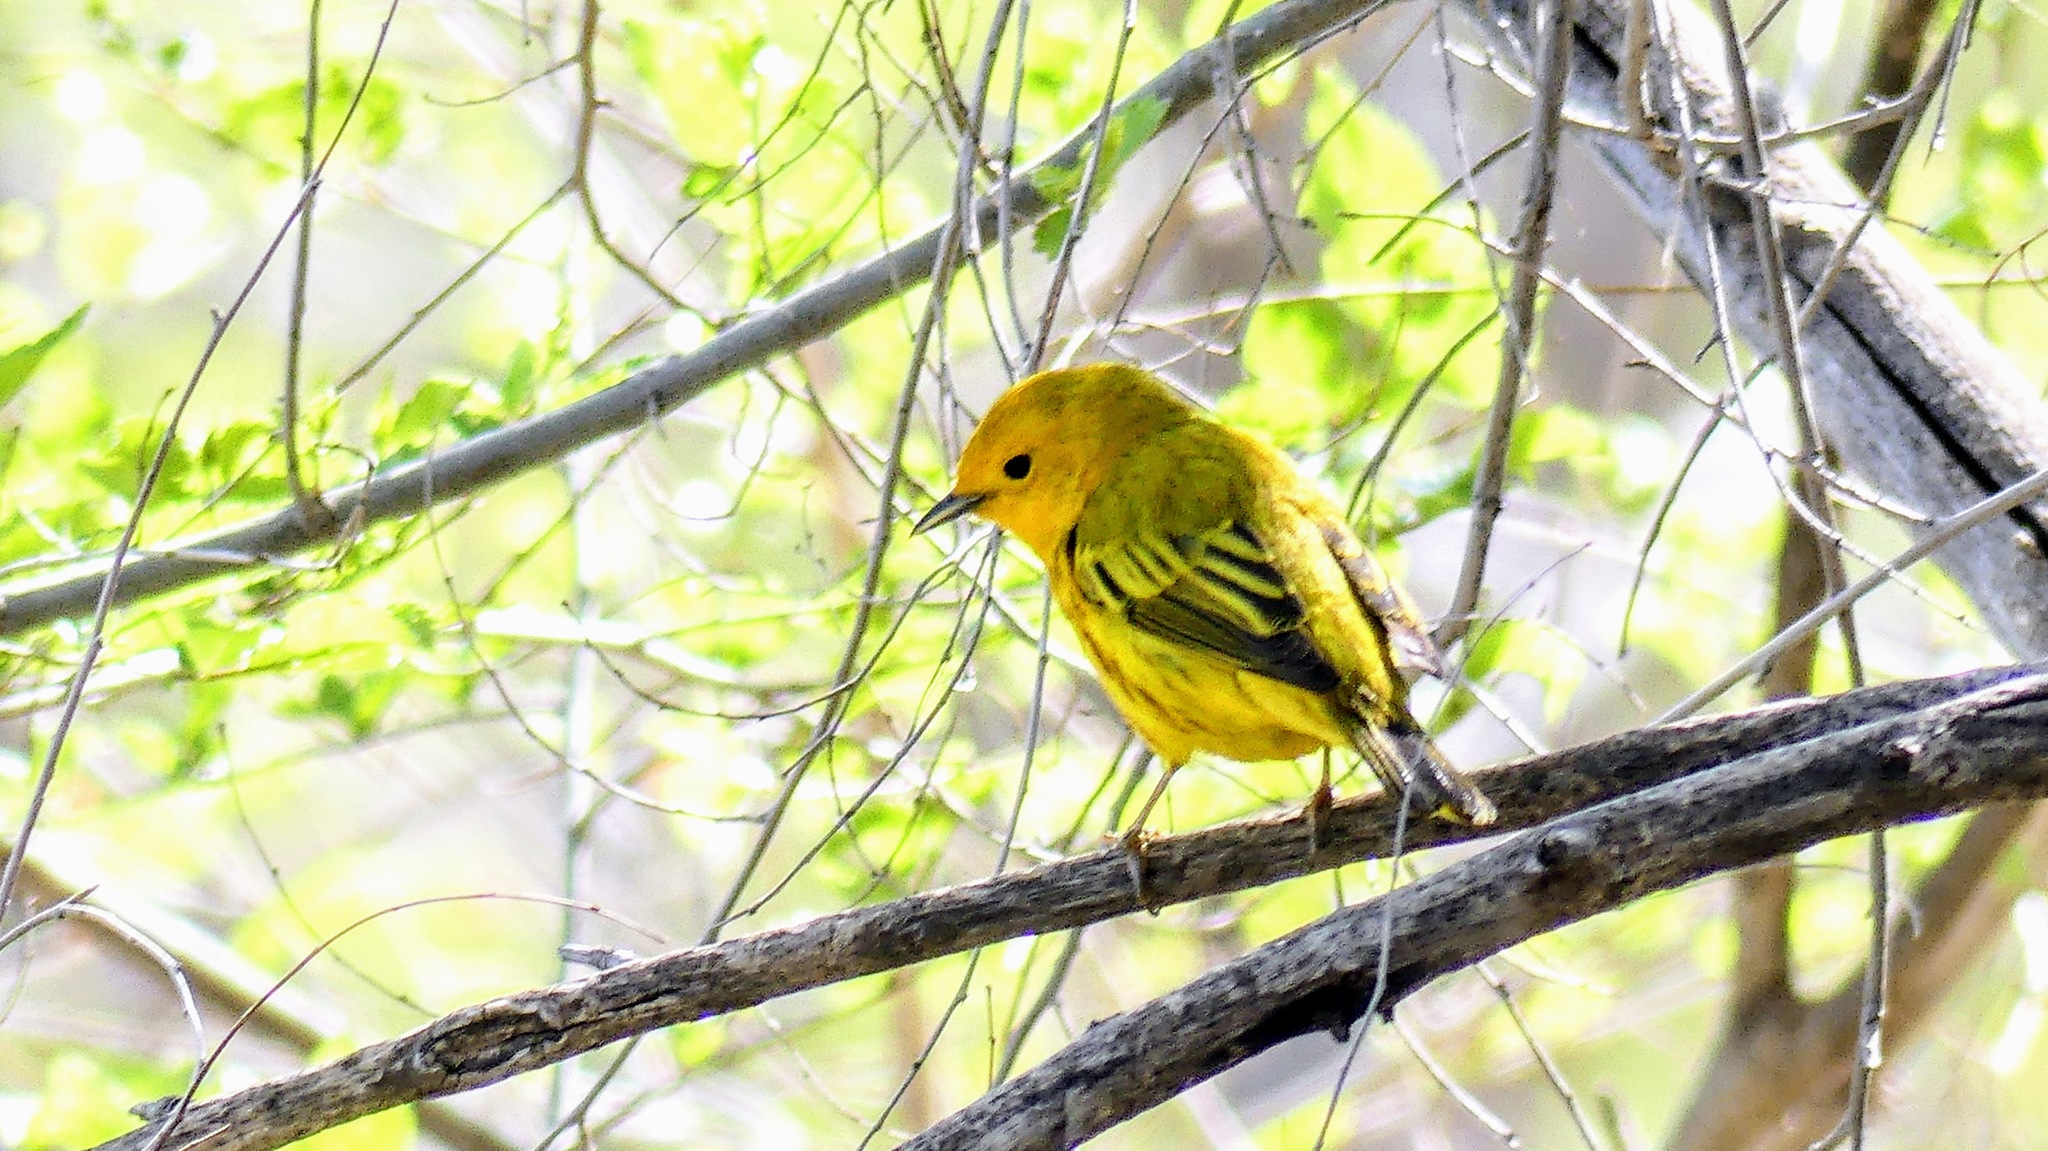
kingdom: Animalia
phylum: Chordata
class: Aves
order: Passeriformes
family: Parulidae
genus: Setophaga
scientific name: Setophaga petechia
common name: Yellow warbler
